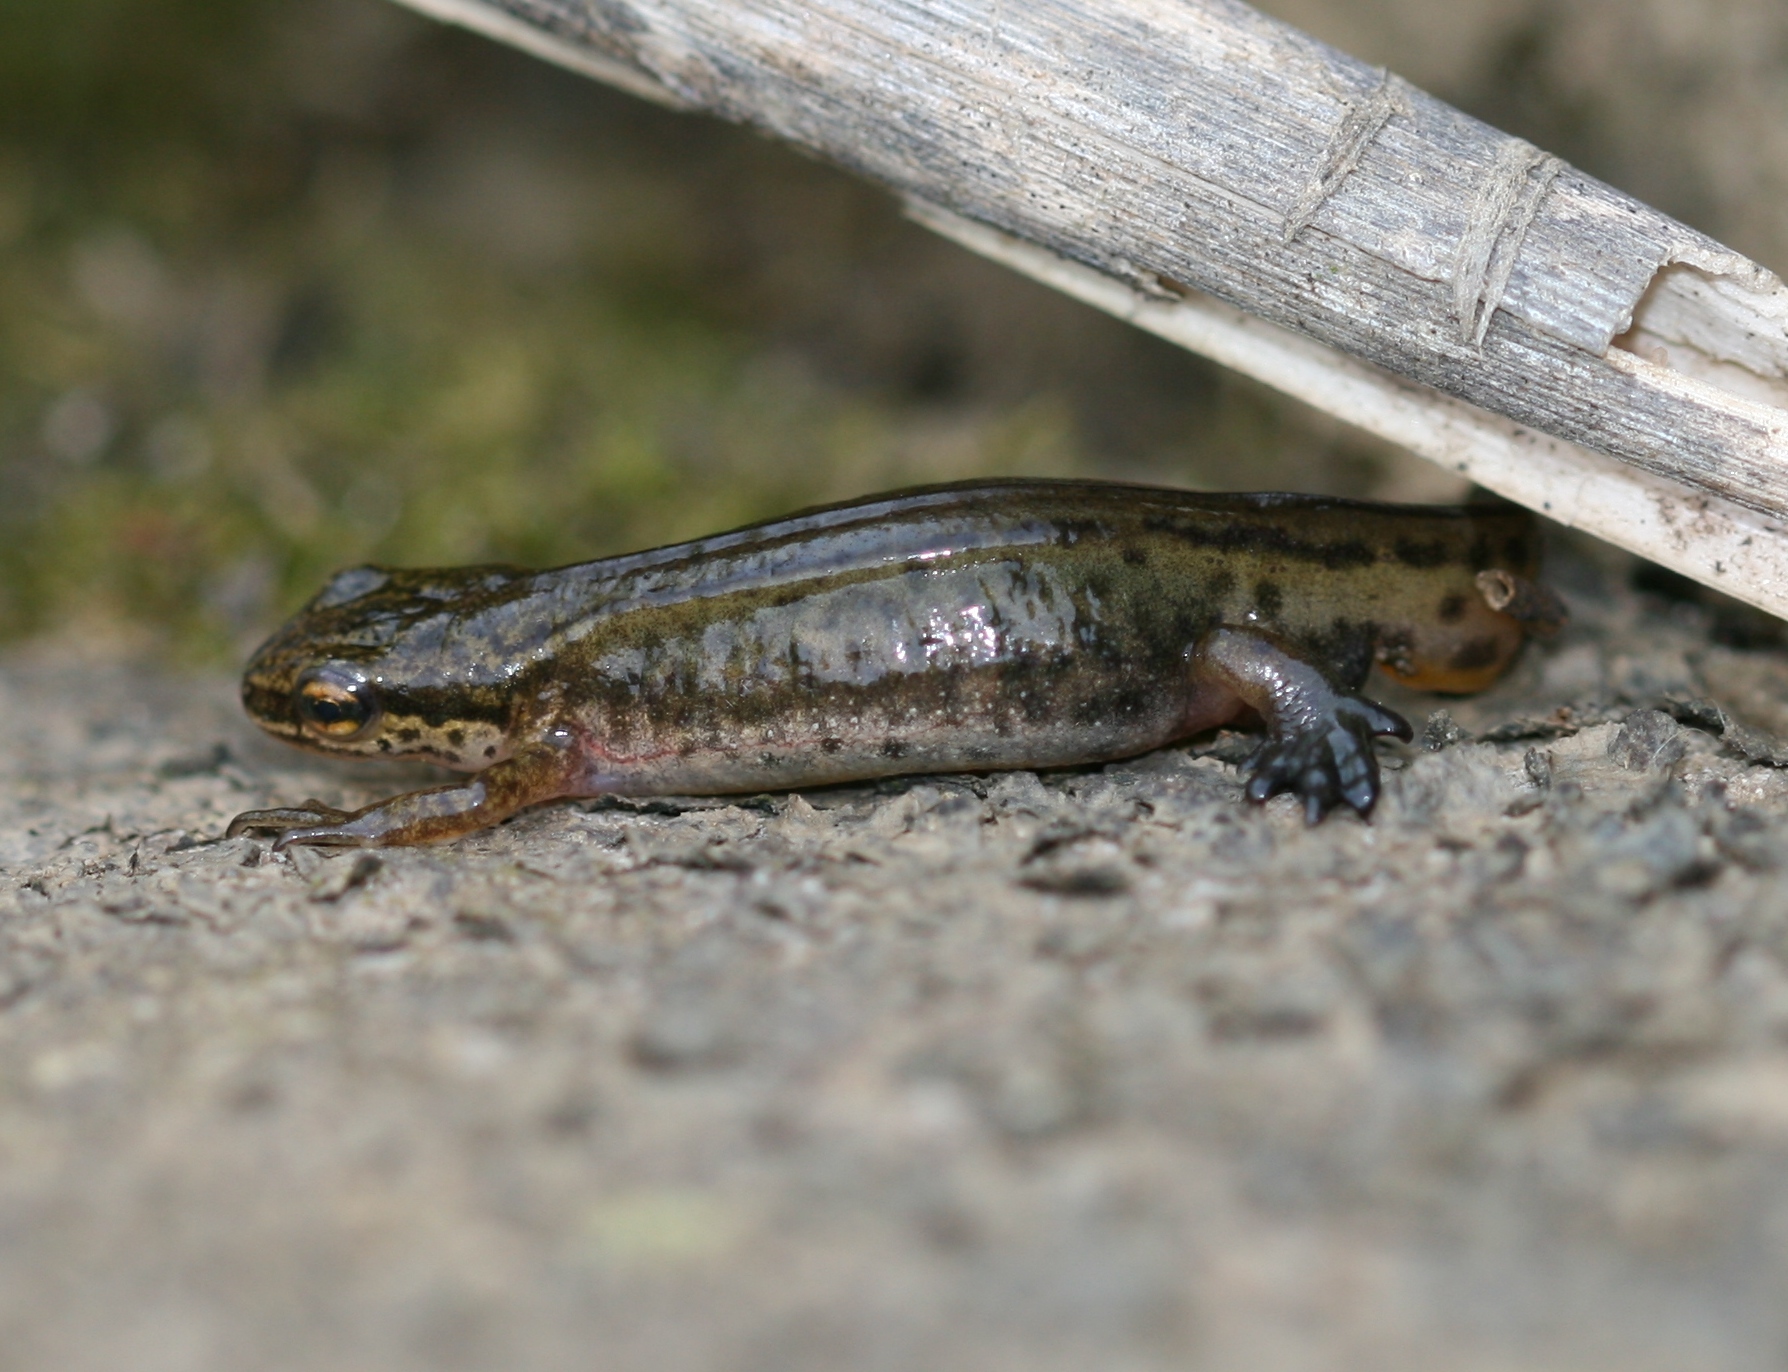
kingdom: Animalia
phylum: Chordata
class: Amphibia
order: Caudata
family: Salamandridae
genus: Lissotriton
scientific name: Lissotriton helveticus
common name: Palmate newt
